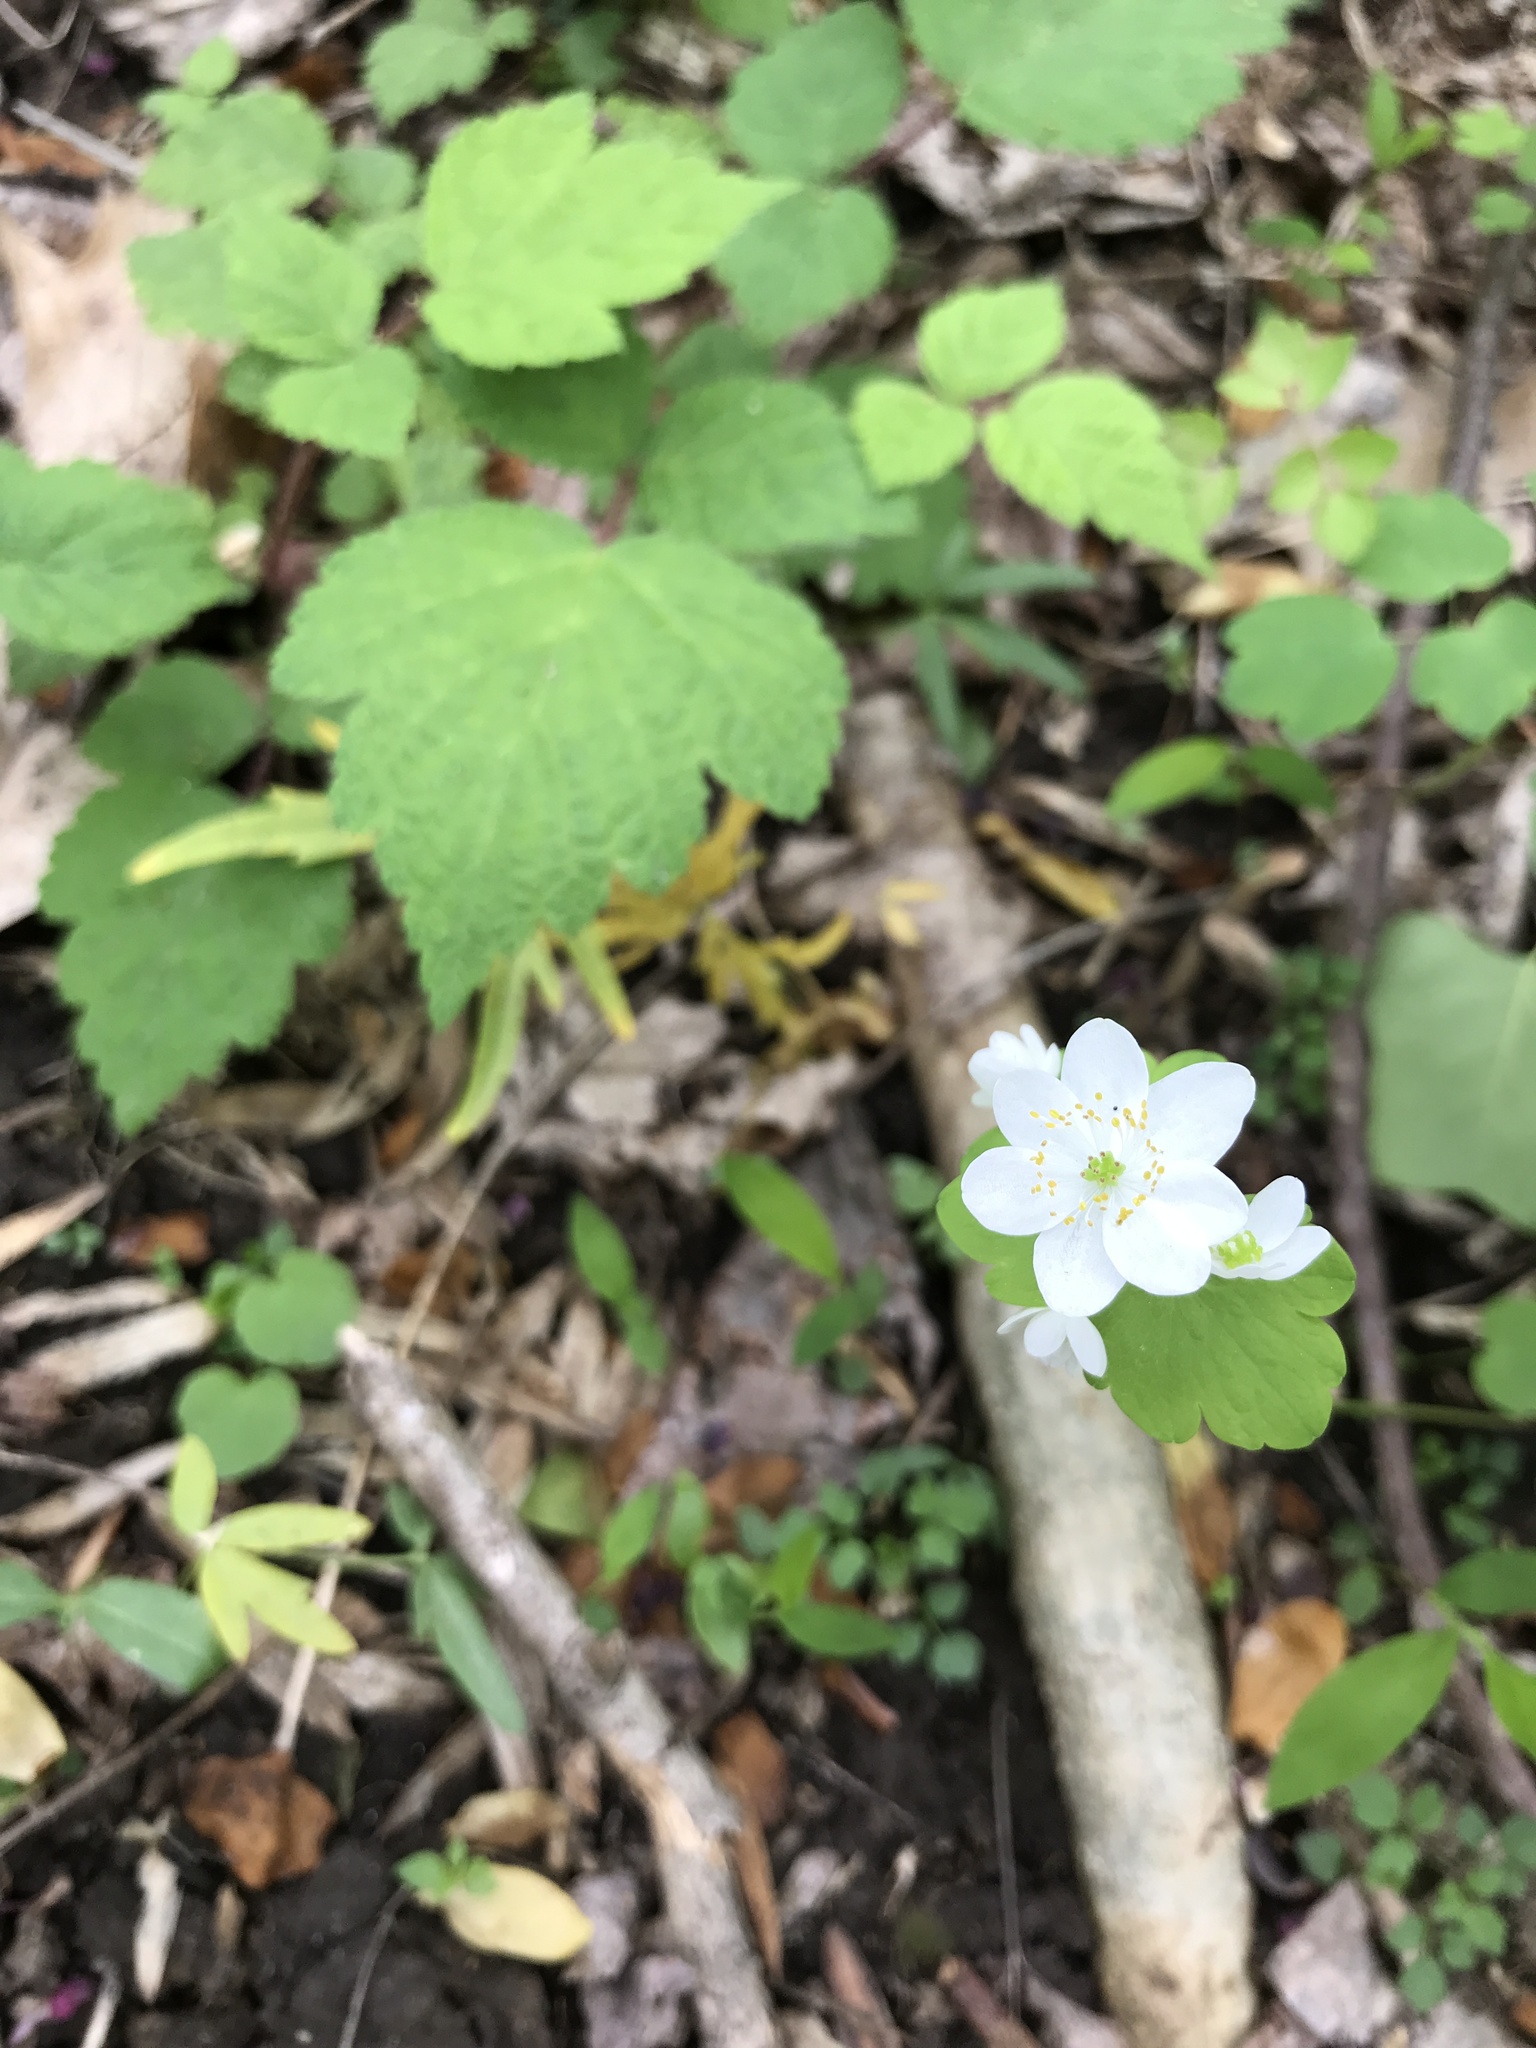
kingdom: Plantae
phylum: Tracheophyta
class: Magnoliopsida
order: Ranunculales
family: Ranunculaceae
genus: Thalictrum
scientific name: Thalictrum thalictroides
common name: Rue-anemone
